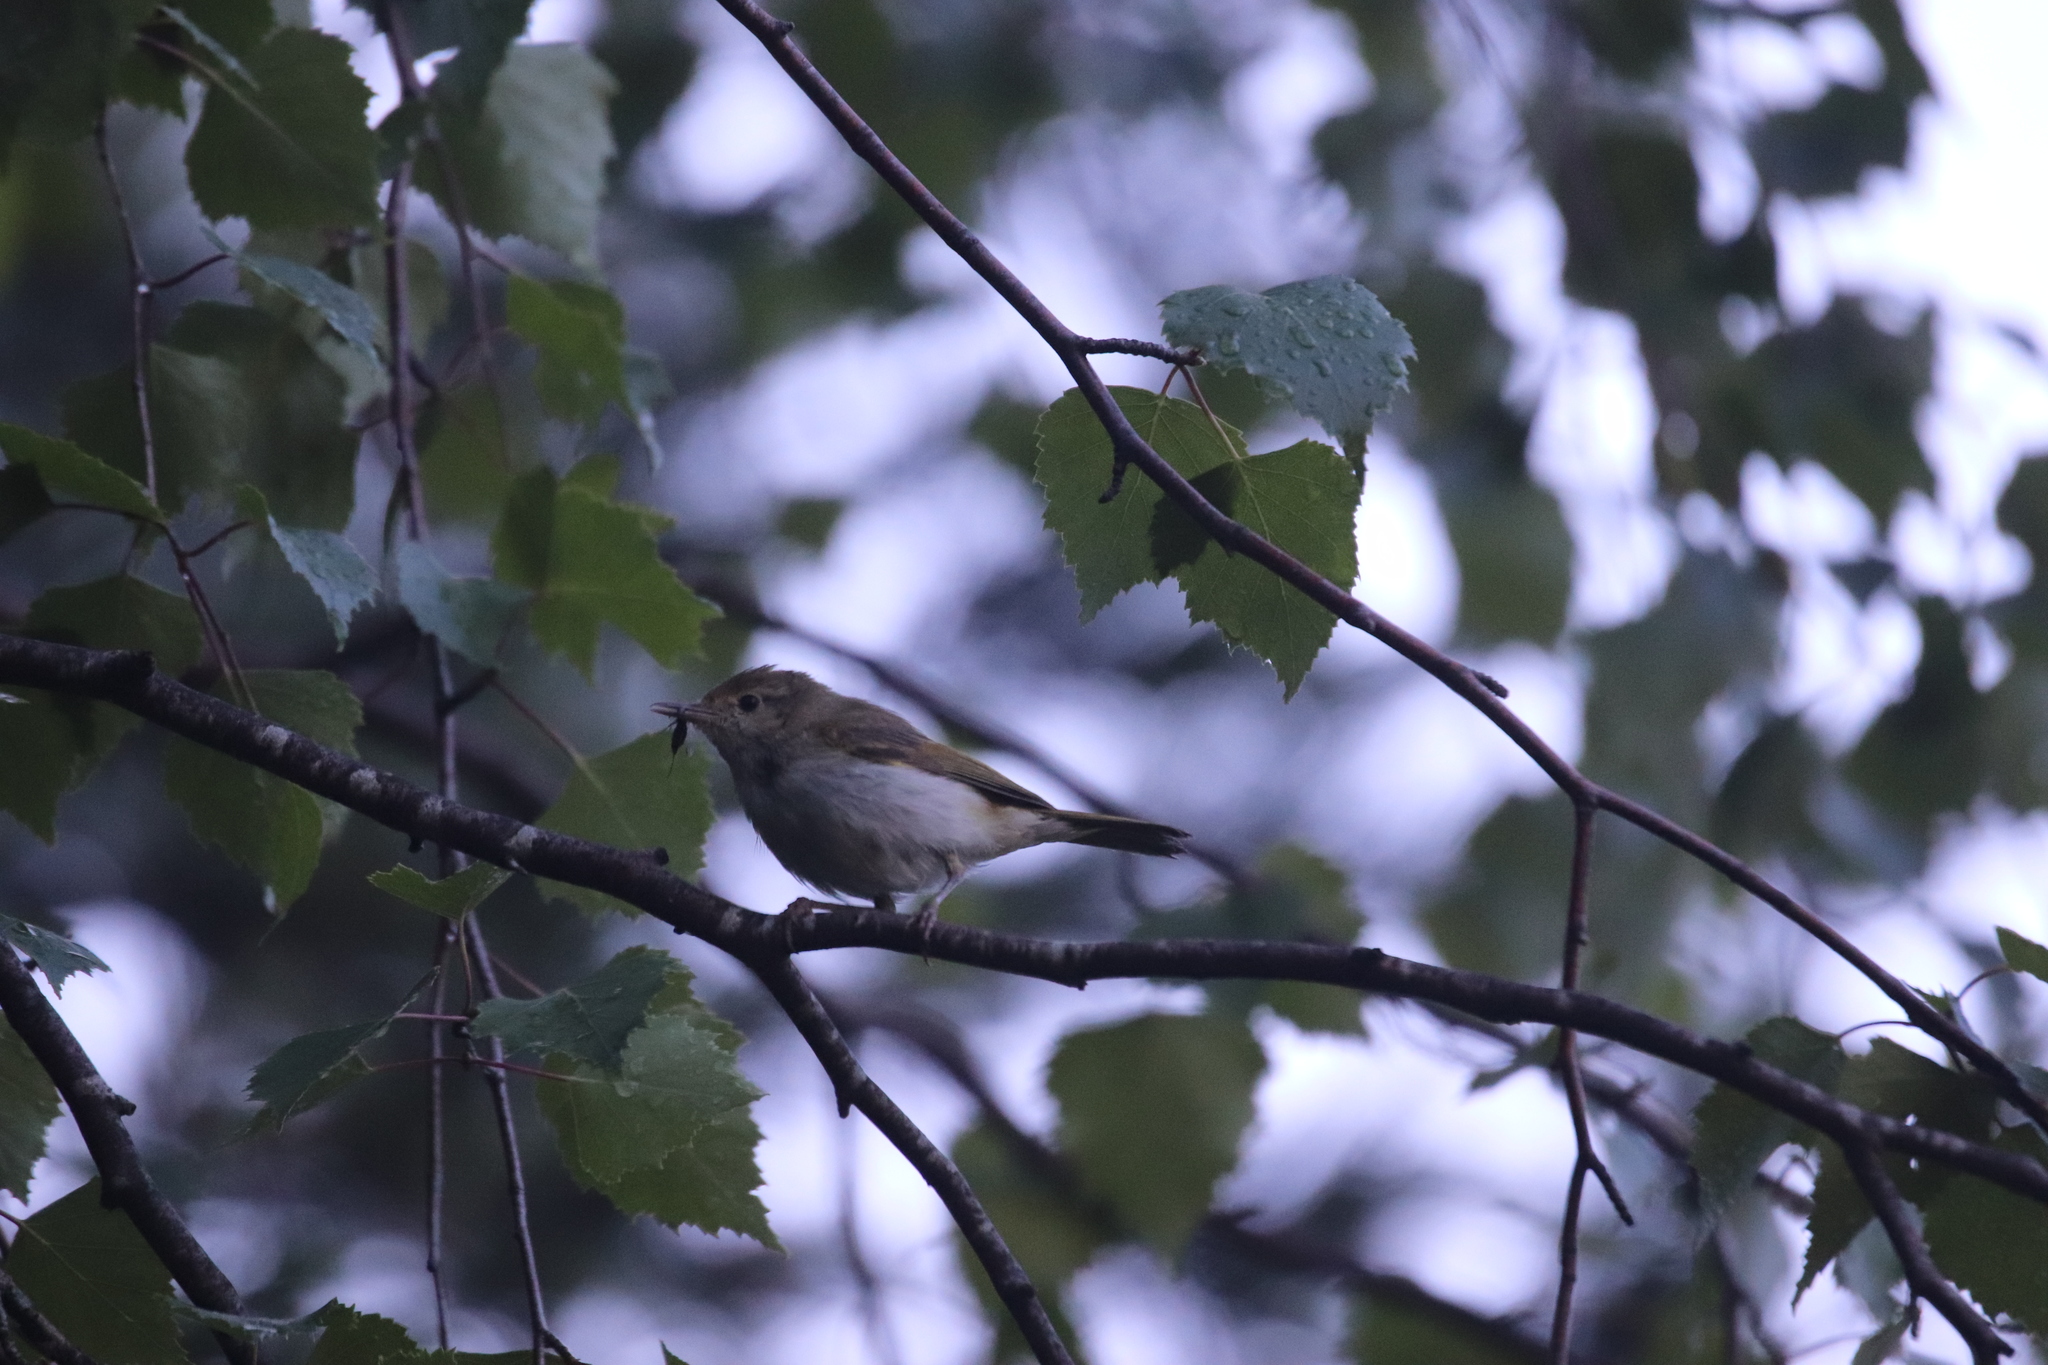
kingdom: Animalia
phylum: Chordata
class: Aves
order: Passeriformes
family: Phylloscopidae
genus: Phylloscopus
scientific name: Phylloscopus bonelli
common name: Western bonelli's warbler
